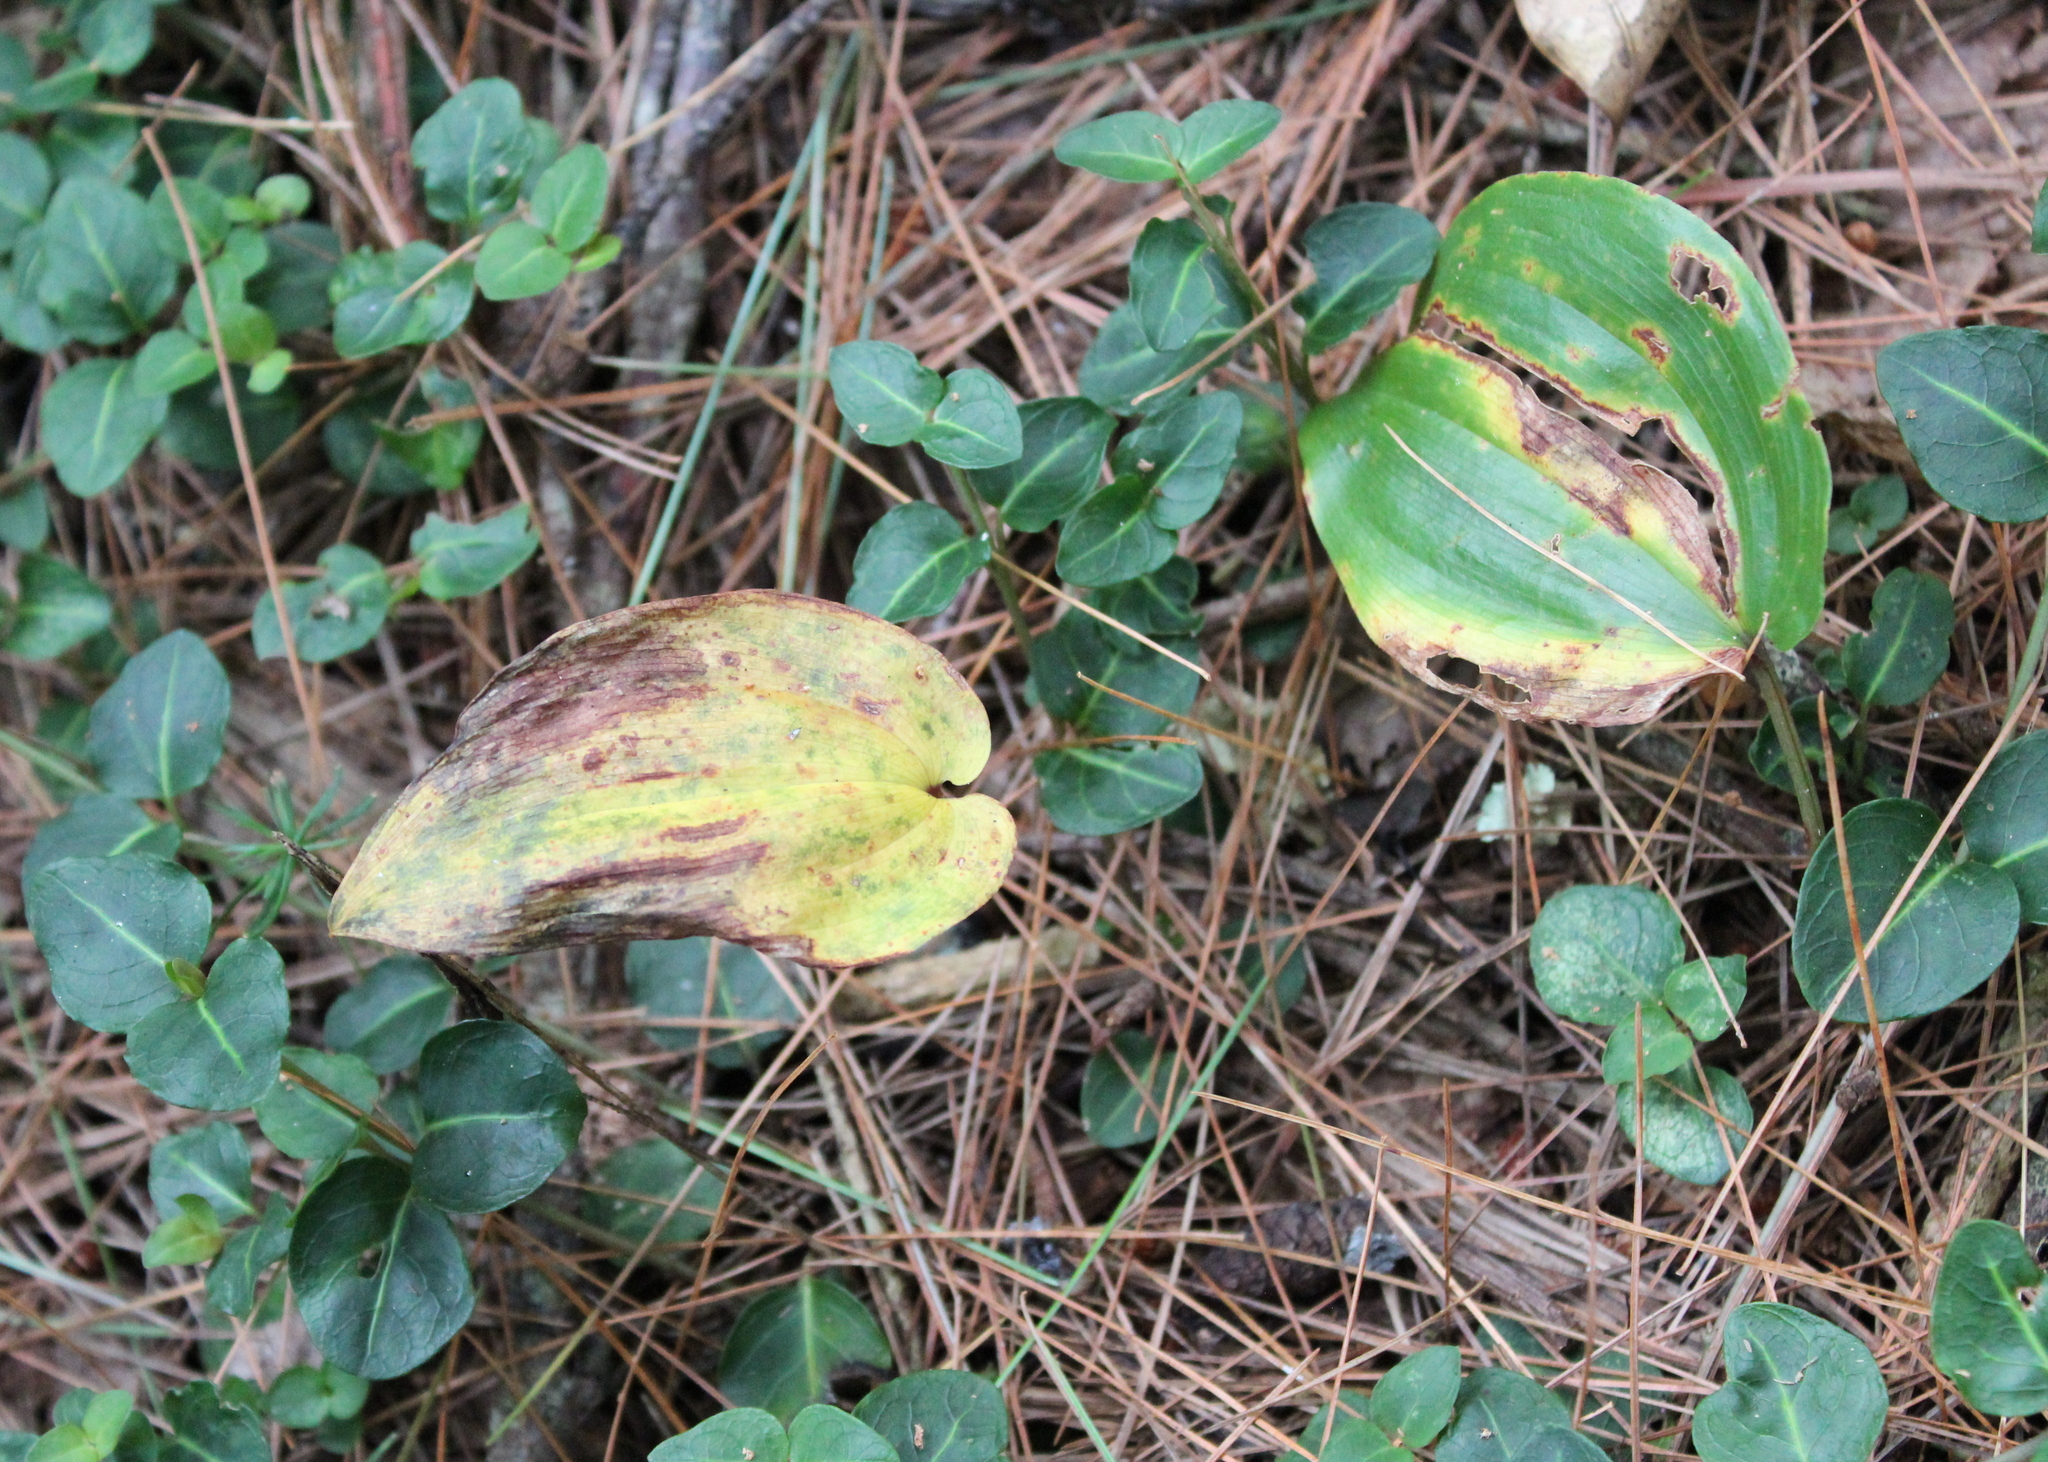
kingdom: Plantae
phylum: Tracheophyta
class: Liliopsida
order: Asparagales
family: Asparagaceae
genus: Maianthemum
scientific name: Maianthemum canadense
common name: False lily-of-the-valley
